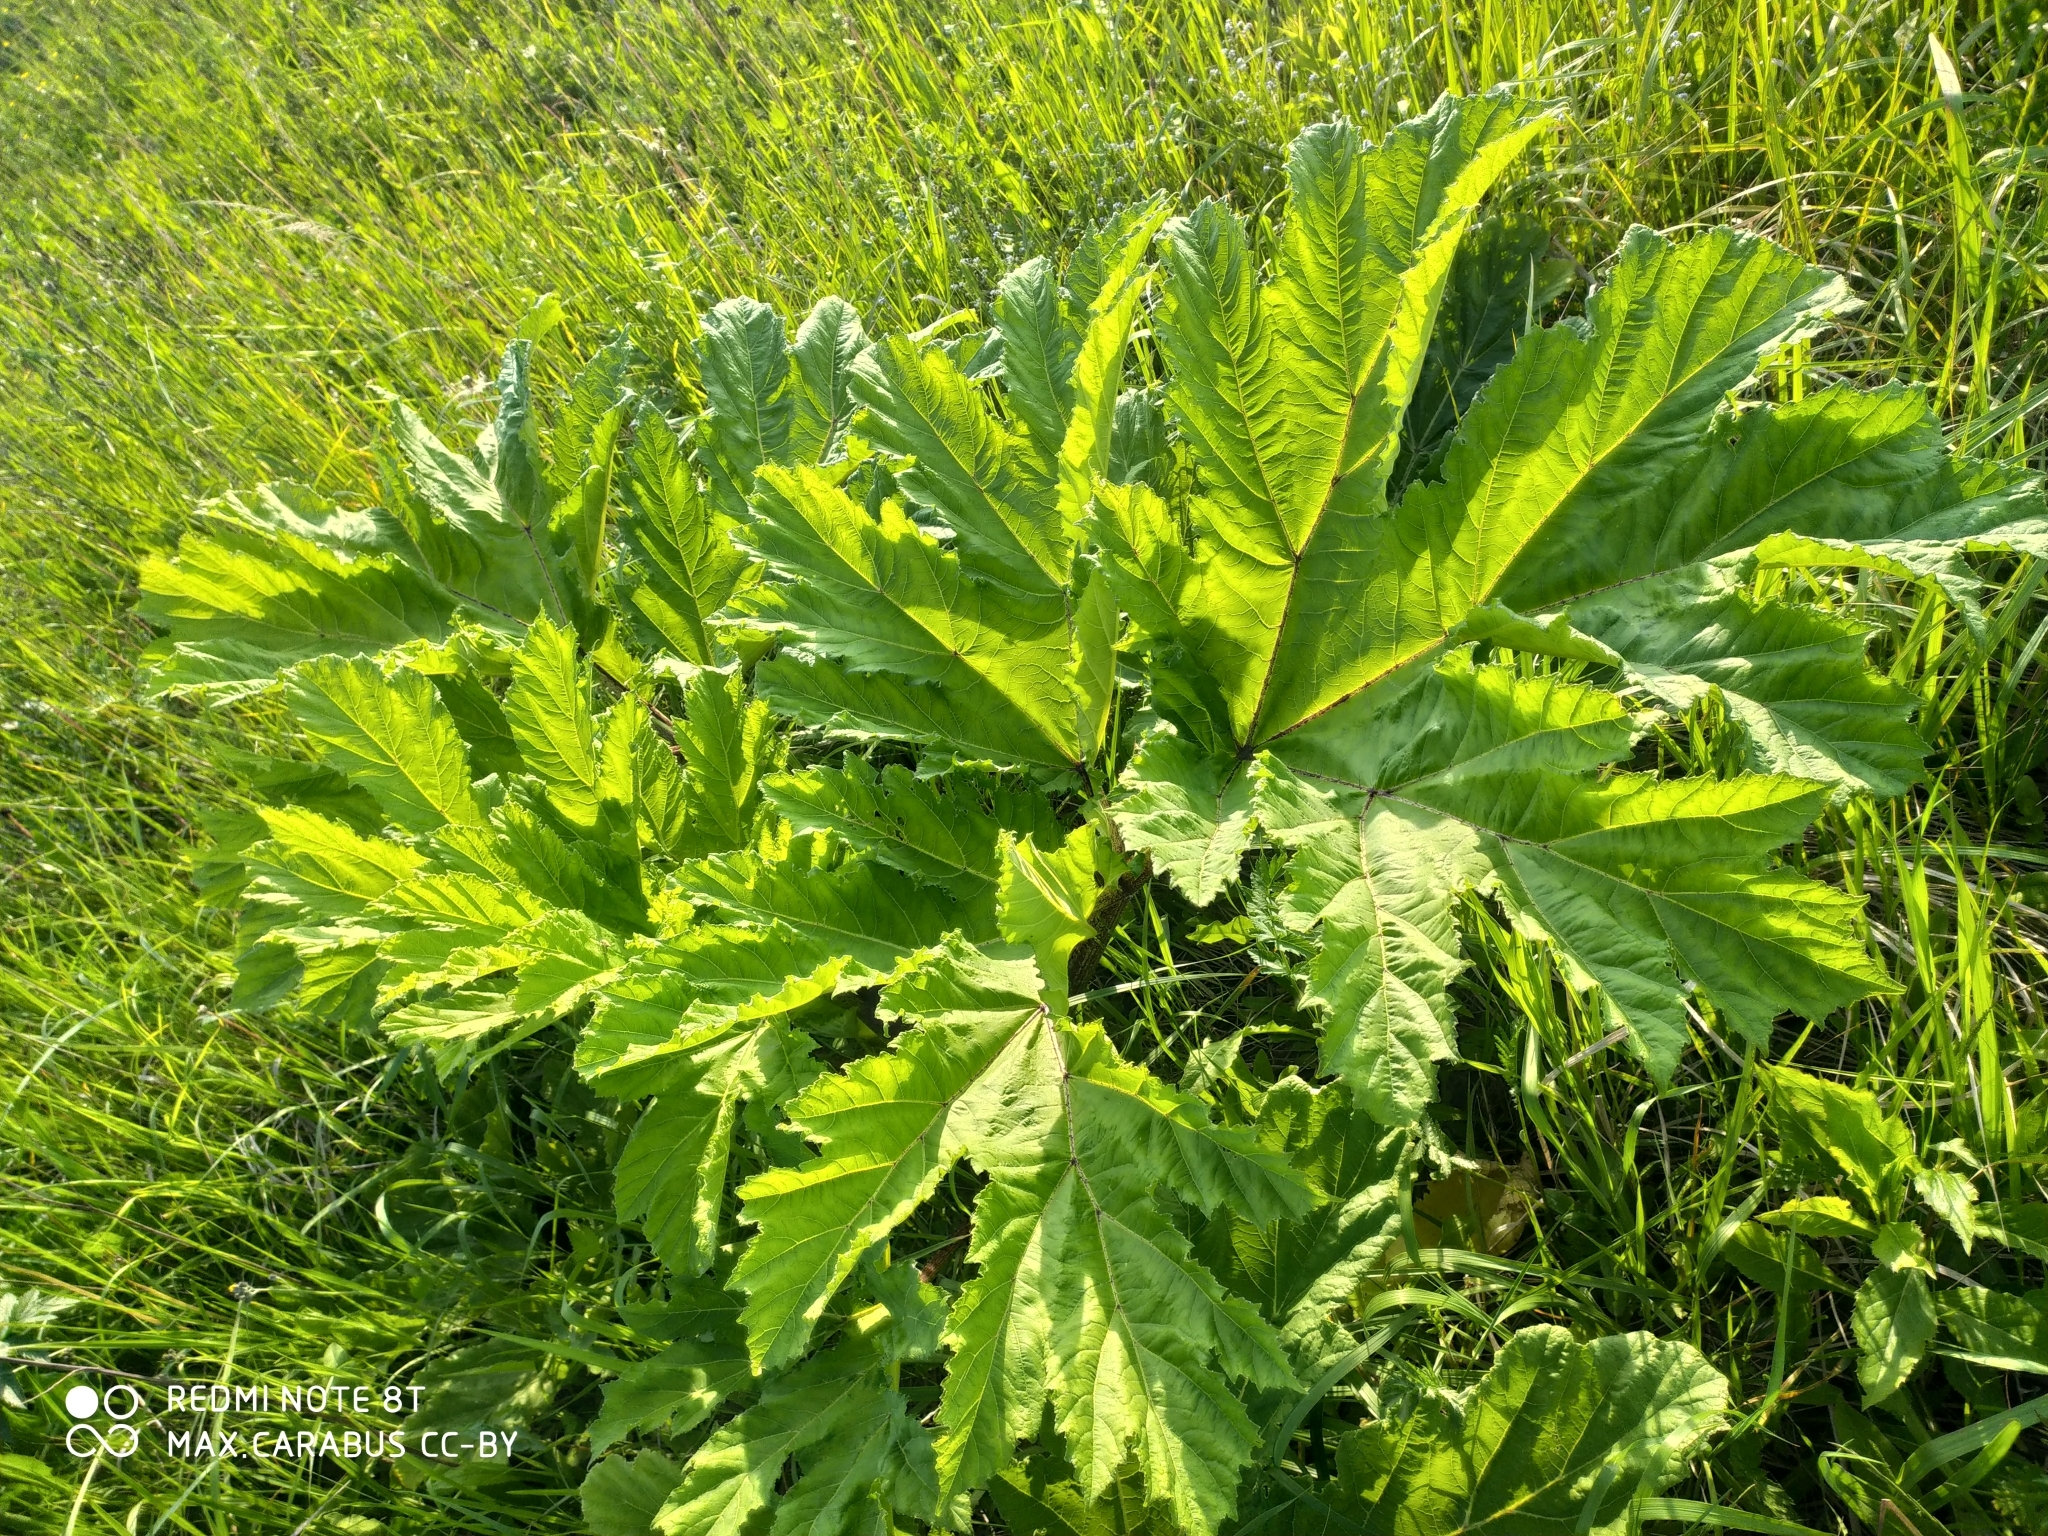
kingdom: Plantae
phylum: Tracheophyta
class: Magnoliopsida
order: Apiales
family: Apiaceae
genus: Heracleum
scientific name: Heracleum sosnowskyi
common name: Sosnowsky's hogweed
